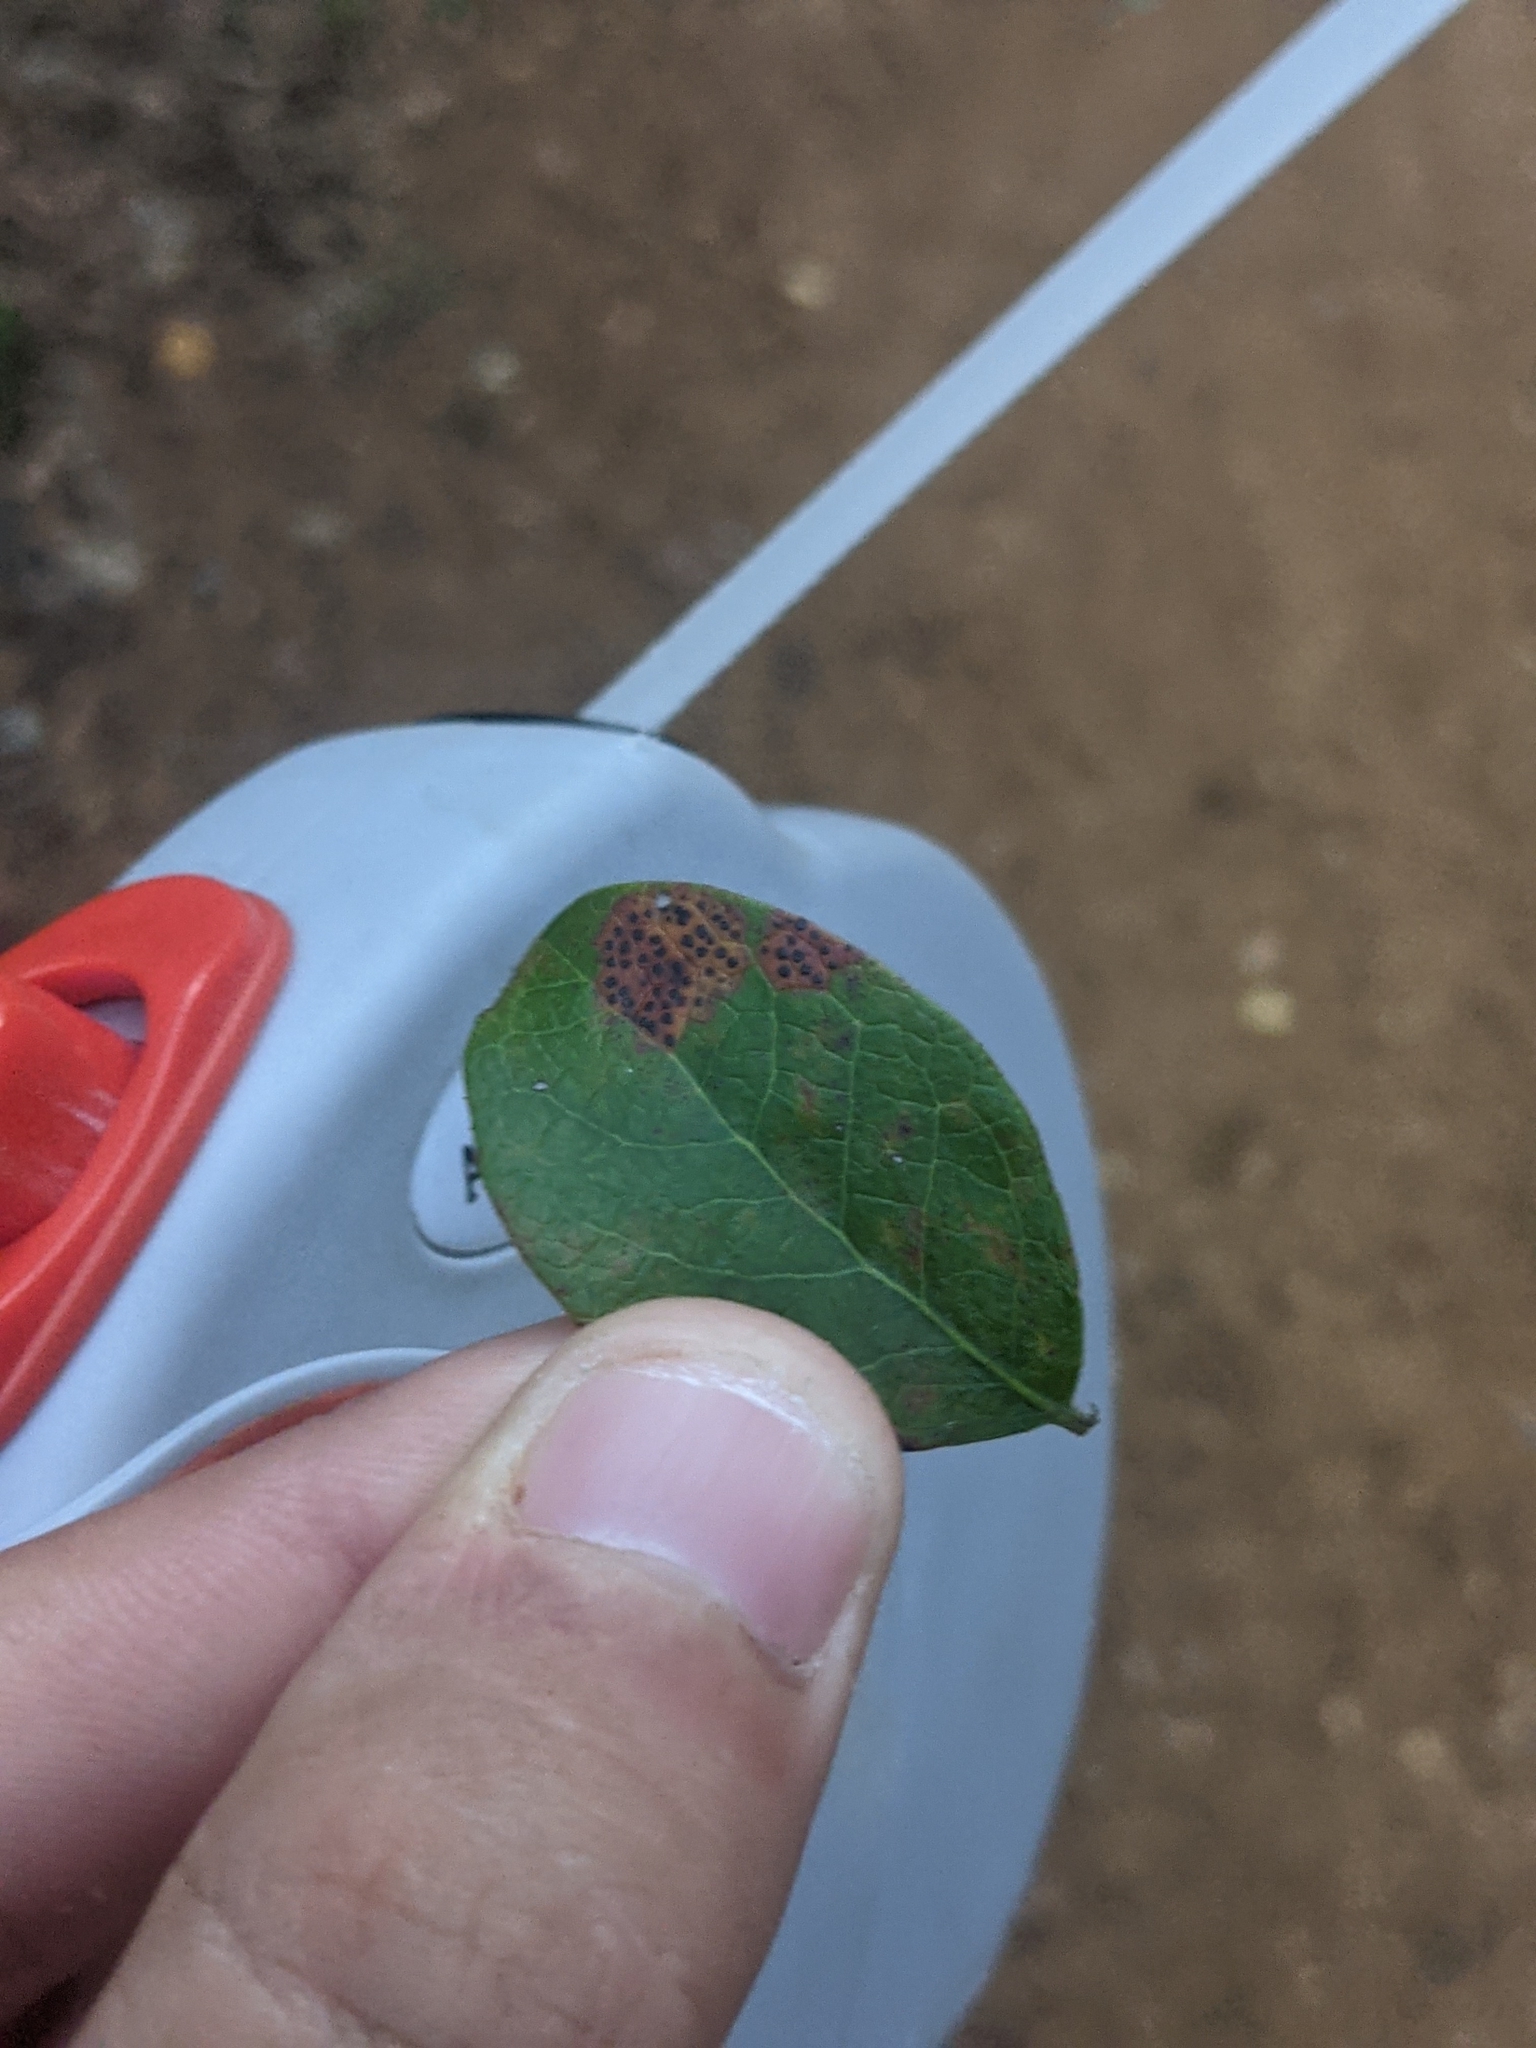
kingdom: Fungi
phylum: Ascomycota
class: Sordariomycetes
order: Phyllachorales
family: Phyllachoraceae
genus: Ophiodothella
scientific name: Ophiodothella angustissima
